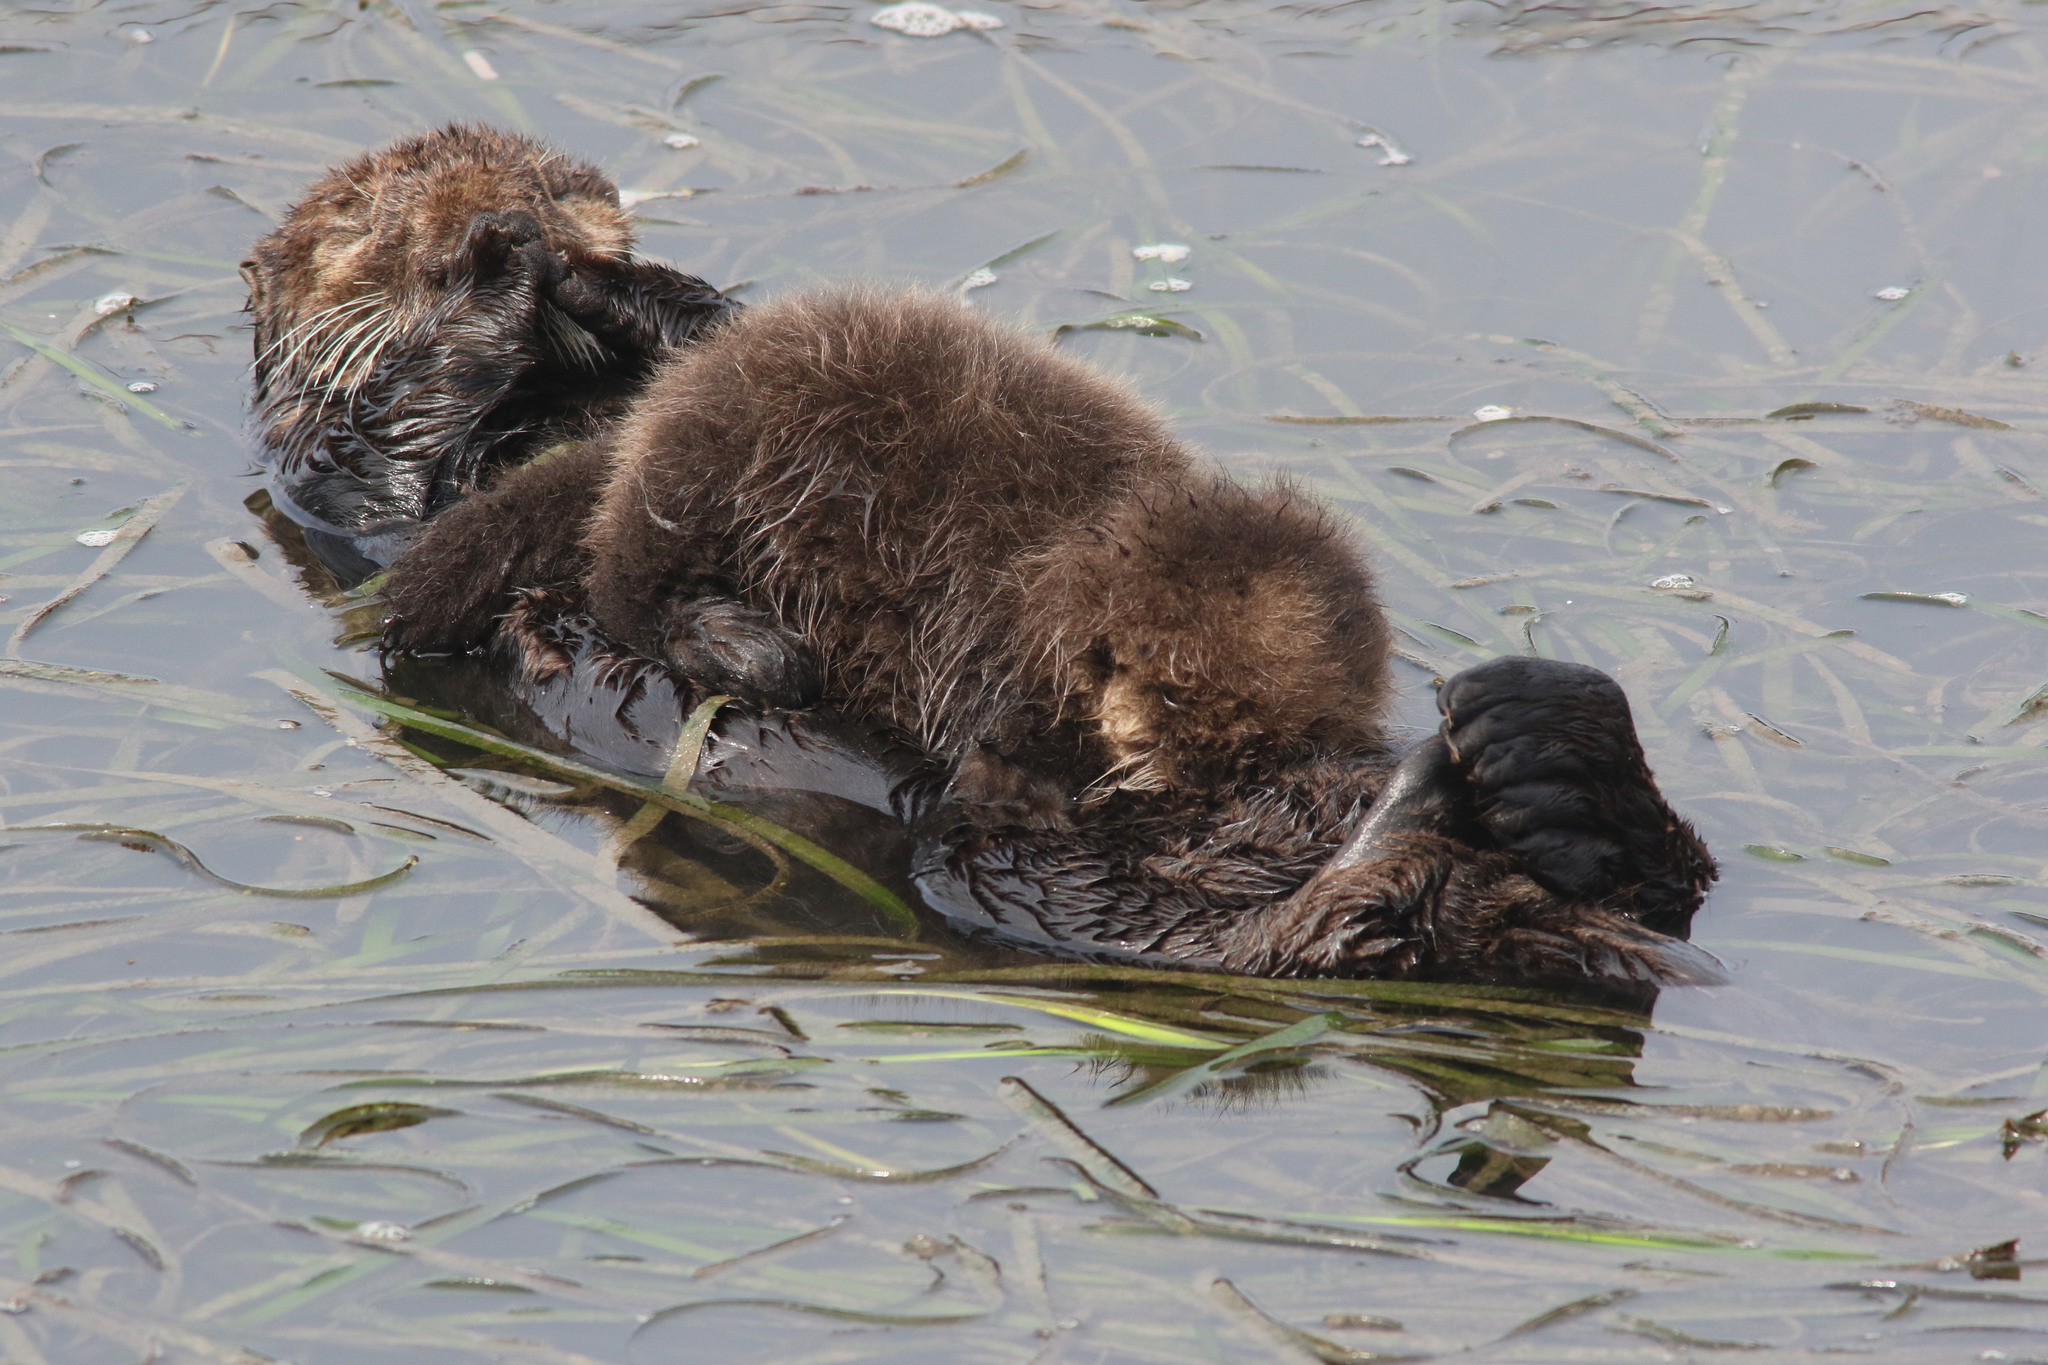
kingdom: Animalia
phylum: Chordata
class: Mammalia
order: Carnivora
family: Mustelidae
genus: Enhydra
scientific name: Enhydra lutris
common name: Sea otter
